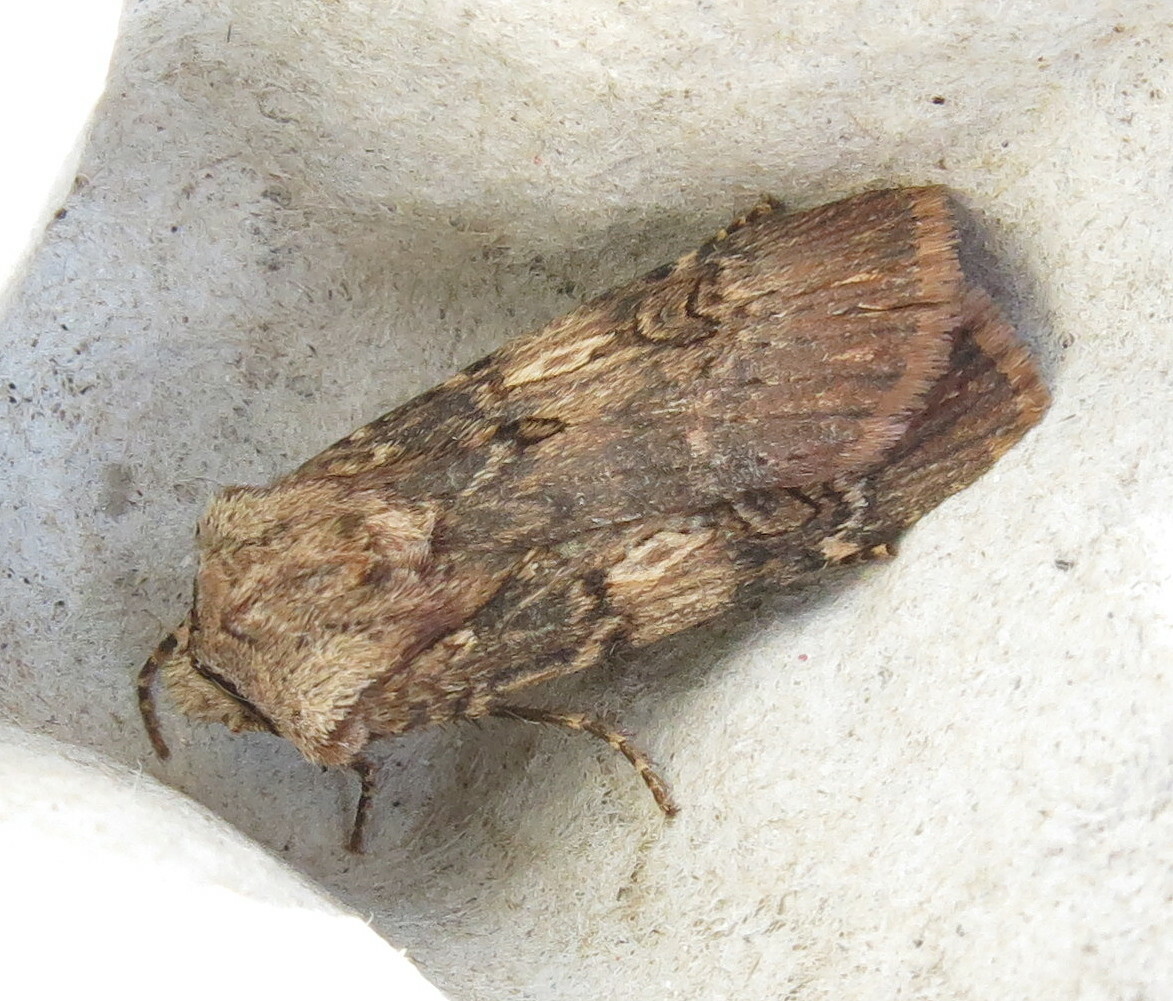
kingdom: Animalia
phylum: Arthropoda
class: Insecta
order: Lepidoptera
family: Noctuidae
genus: Agrotis
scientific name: Agrotis puta
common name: Shuttle-shaped dart
